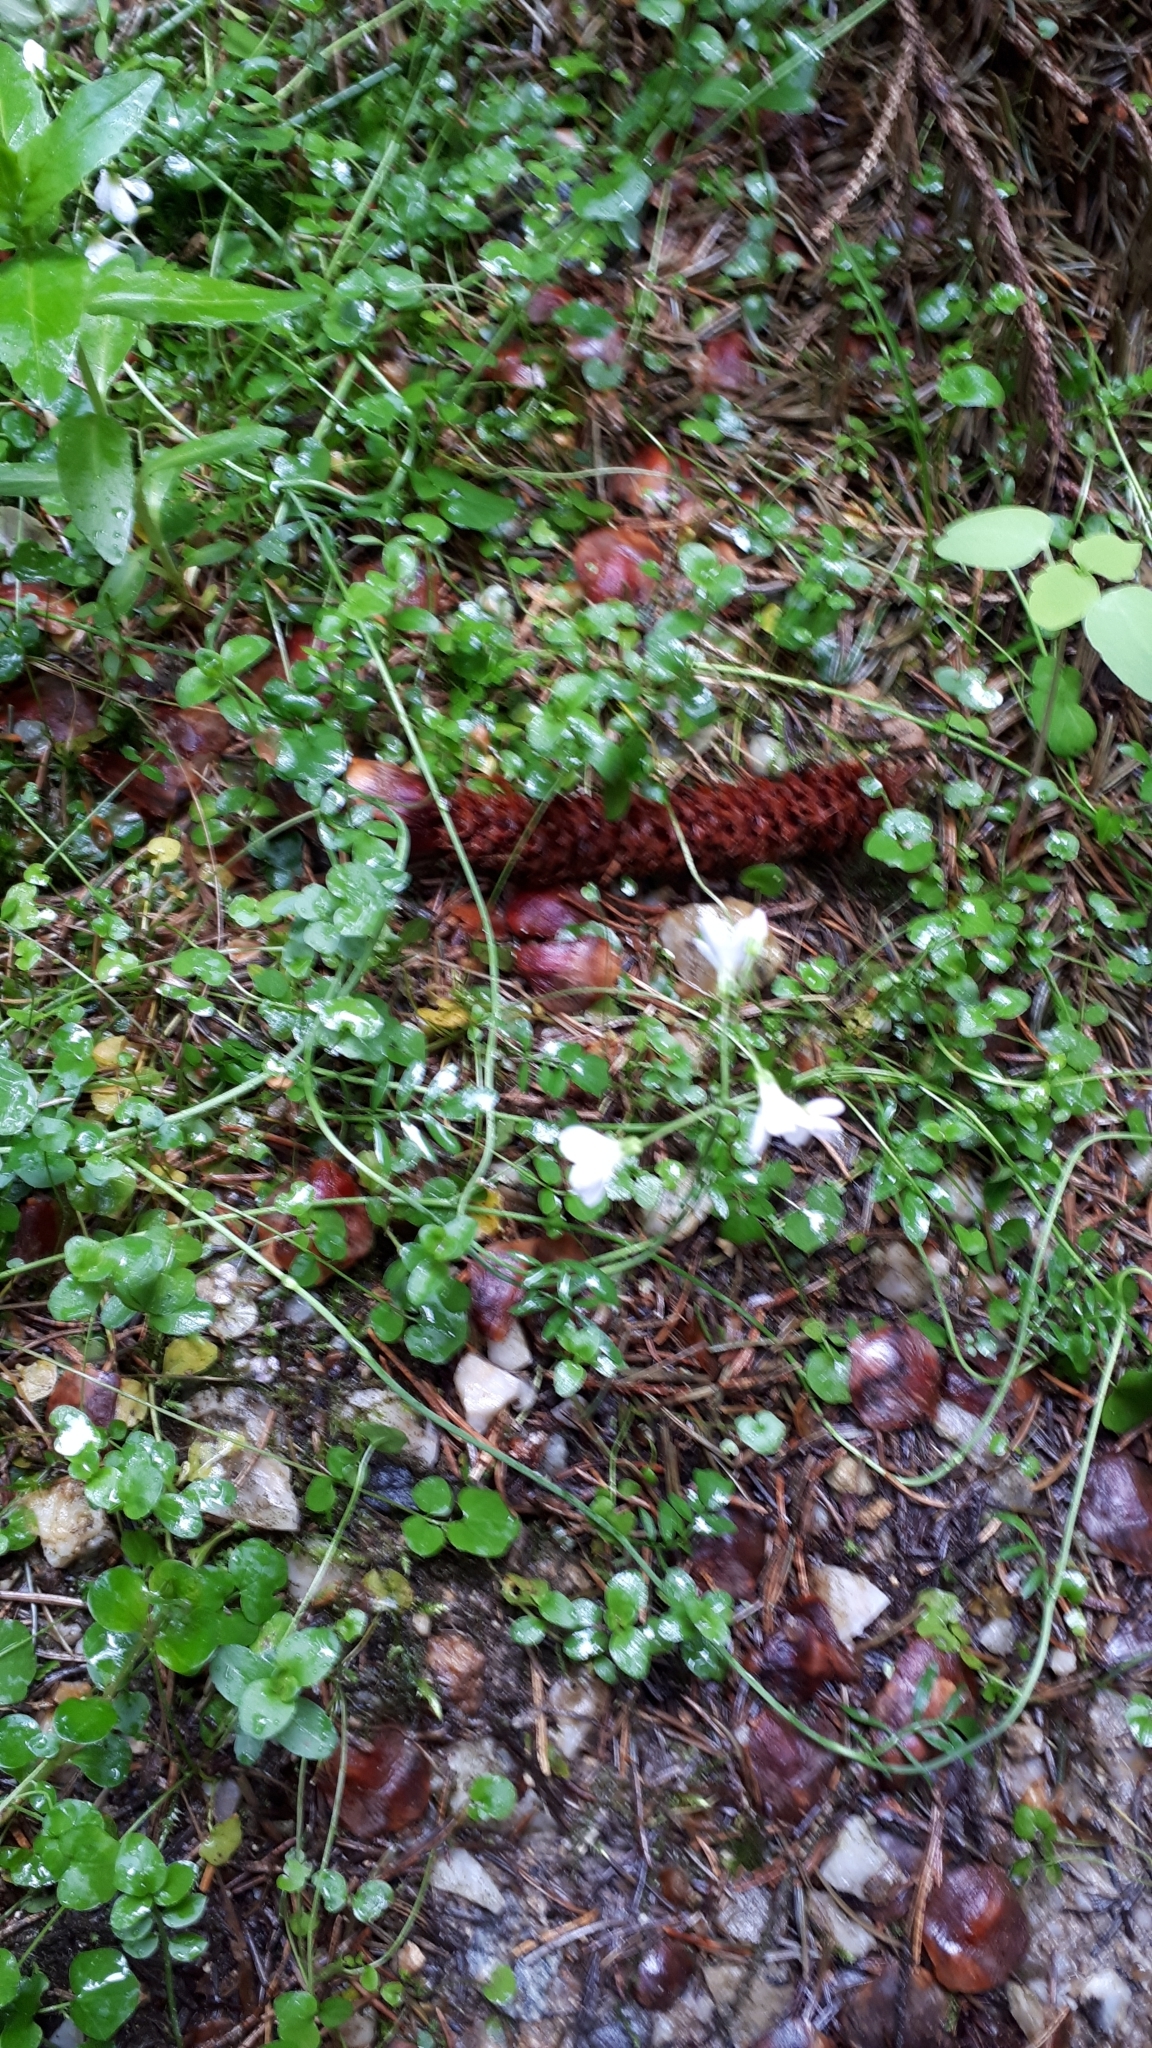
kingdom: Plantae
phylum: Tracheophyta
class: Magnoliopsida
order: Brassicales
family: Brassicaceae
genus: Cardamine
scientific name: Cardamine pratensis
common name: Cuckoo flower
